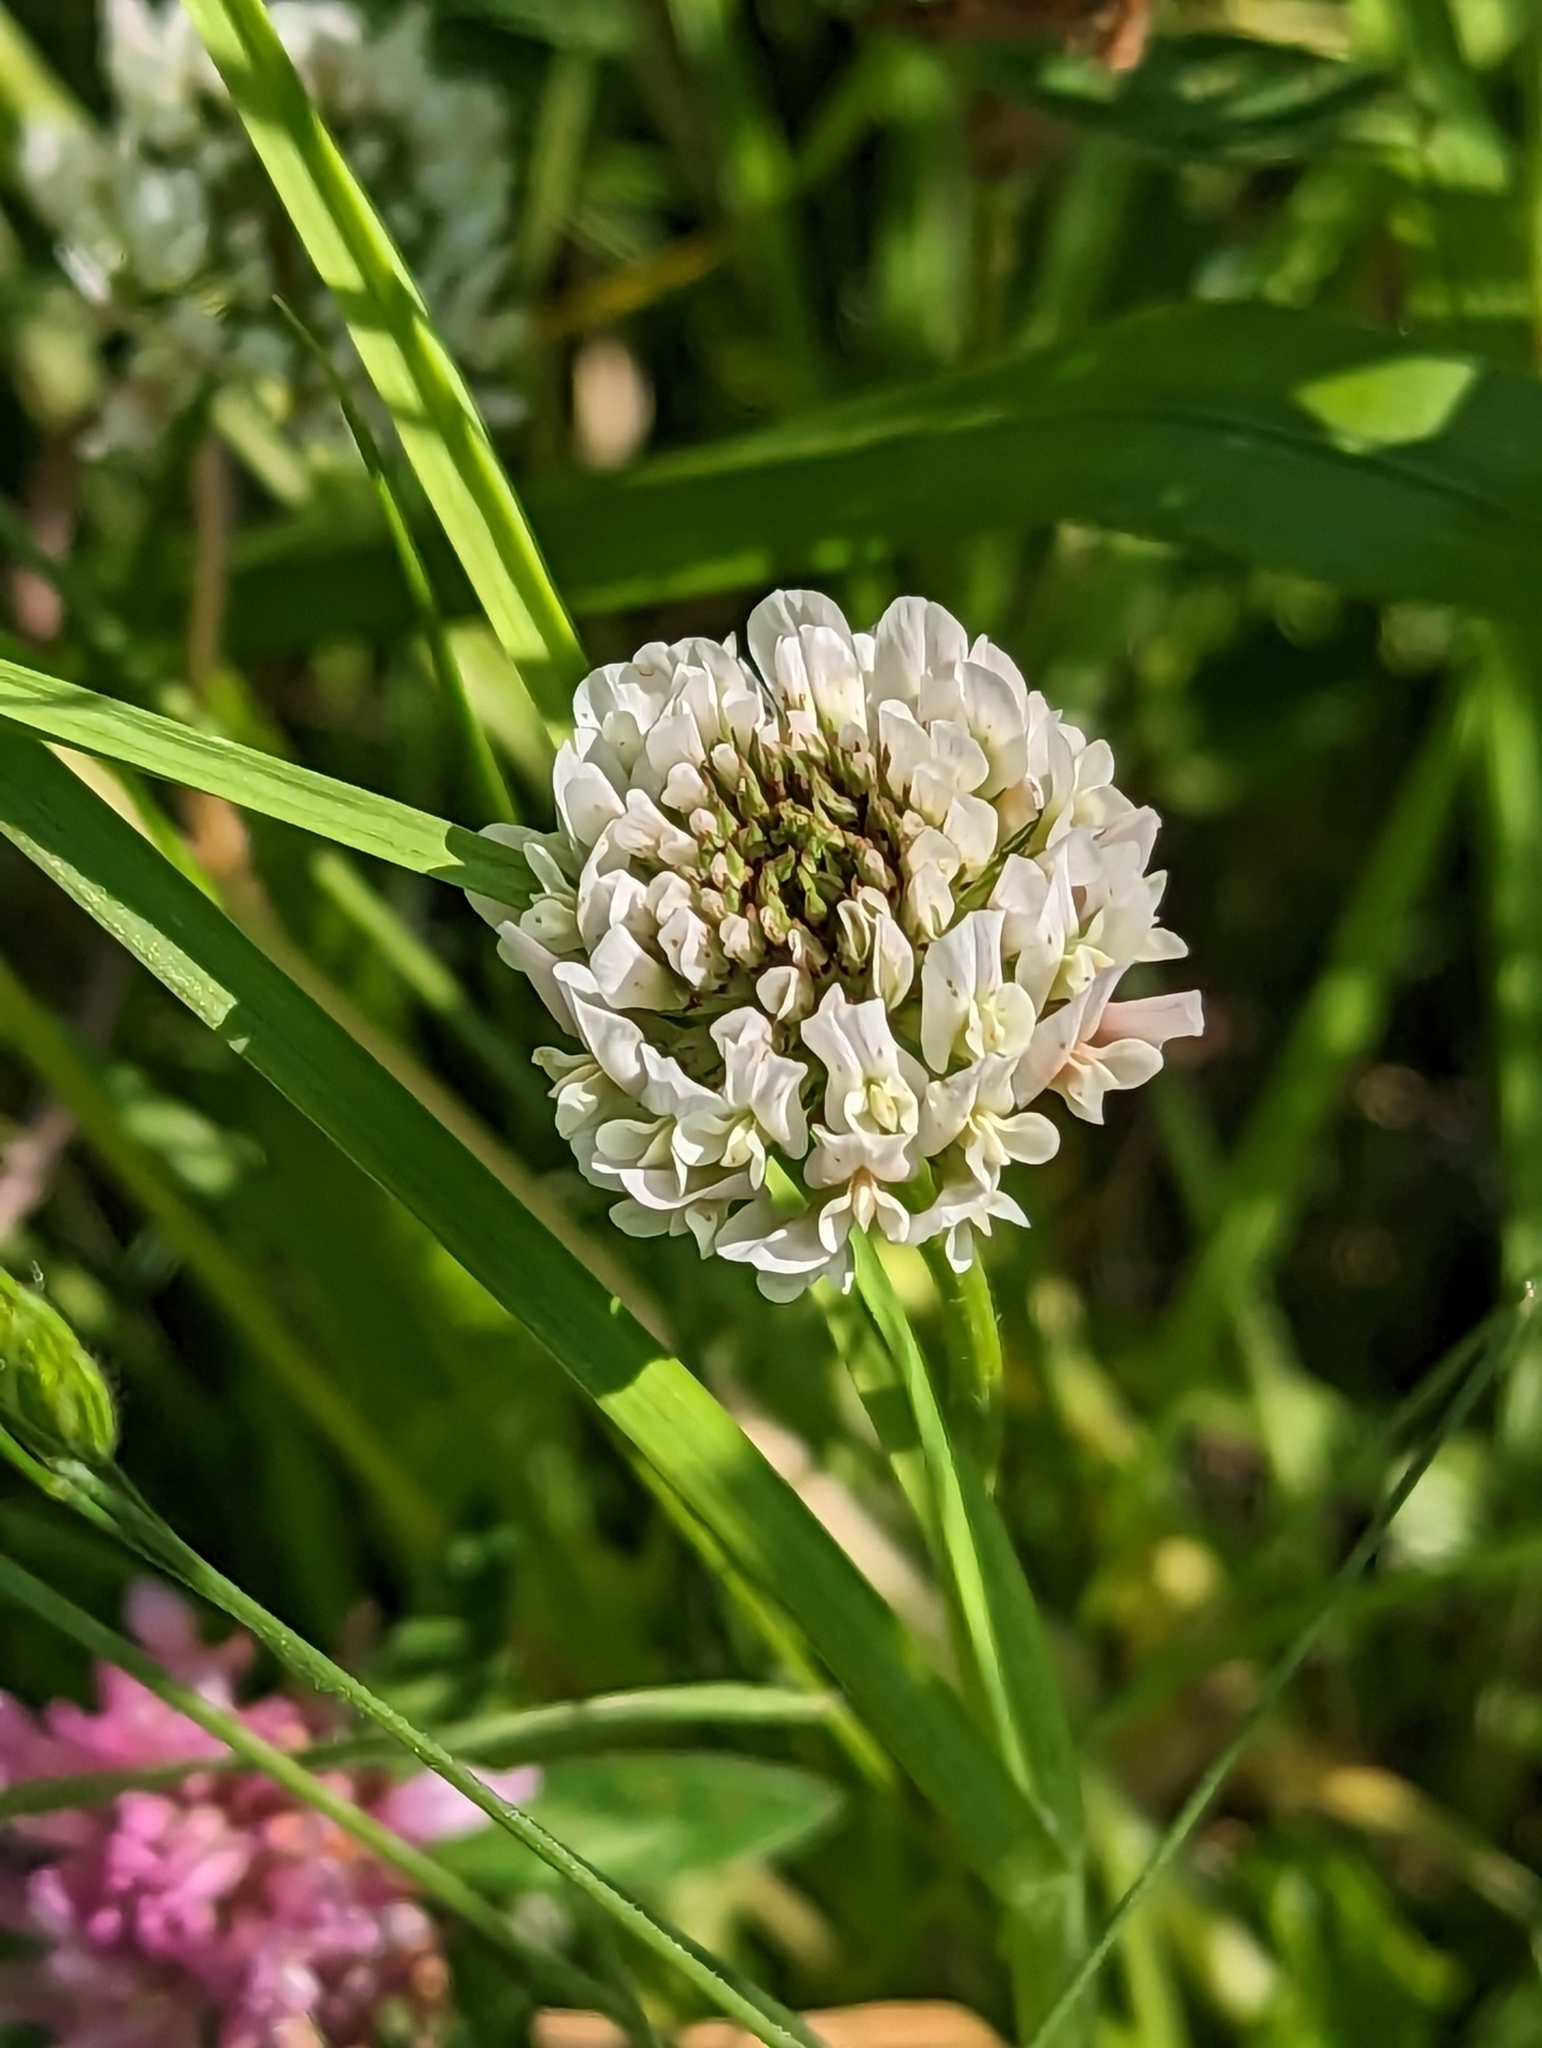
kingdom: Plantae
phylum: Tracheophyta
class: Magnoliopsida
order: Fabales
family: Fabaceae
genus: Trifolium
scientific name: Trifolium repens
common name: White clover
